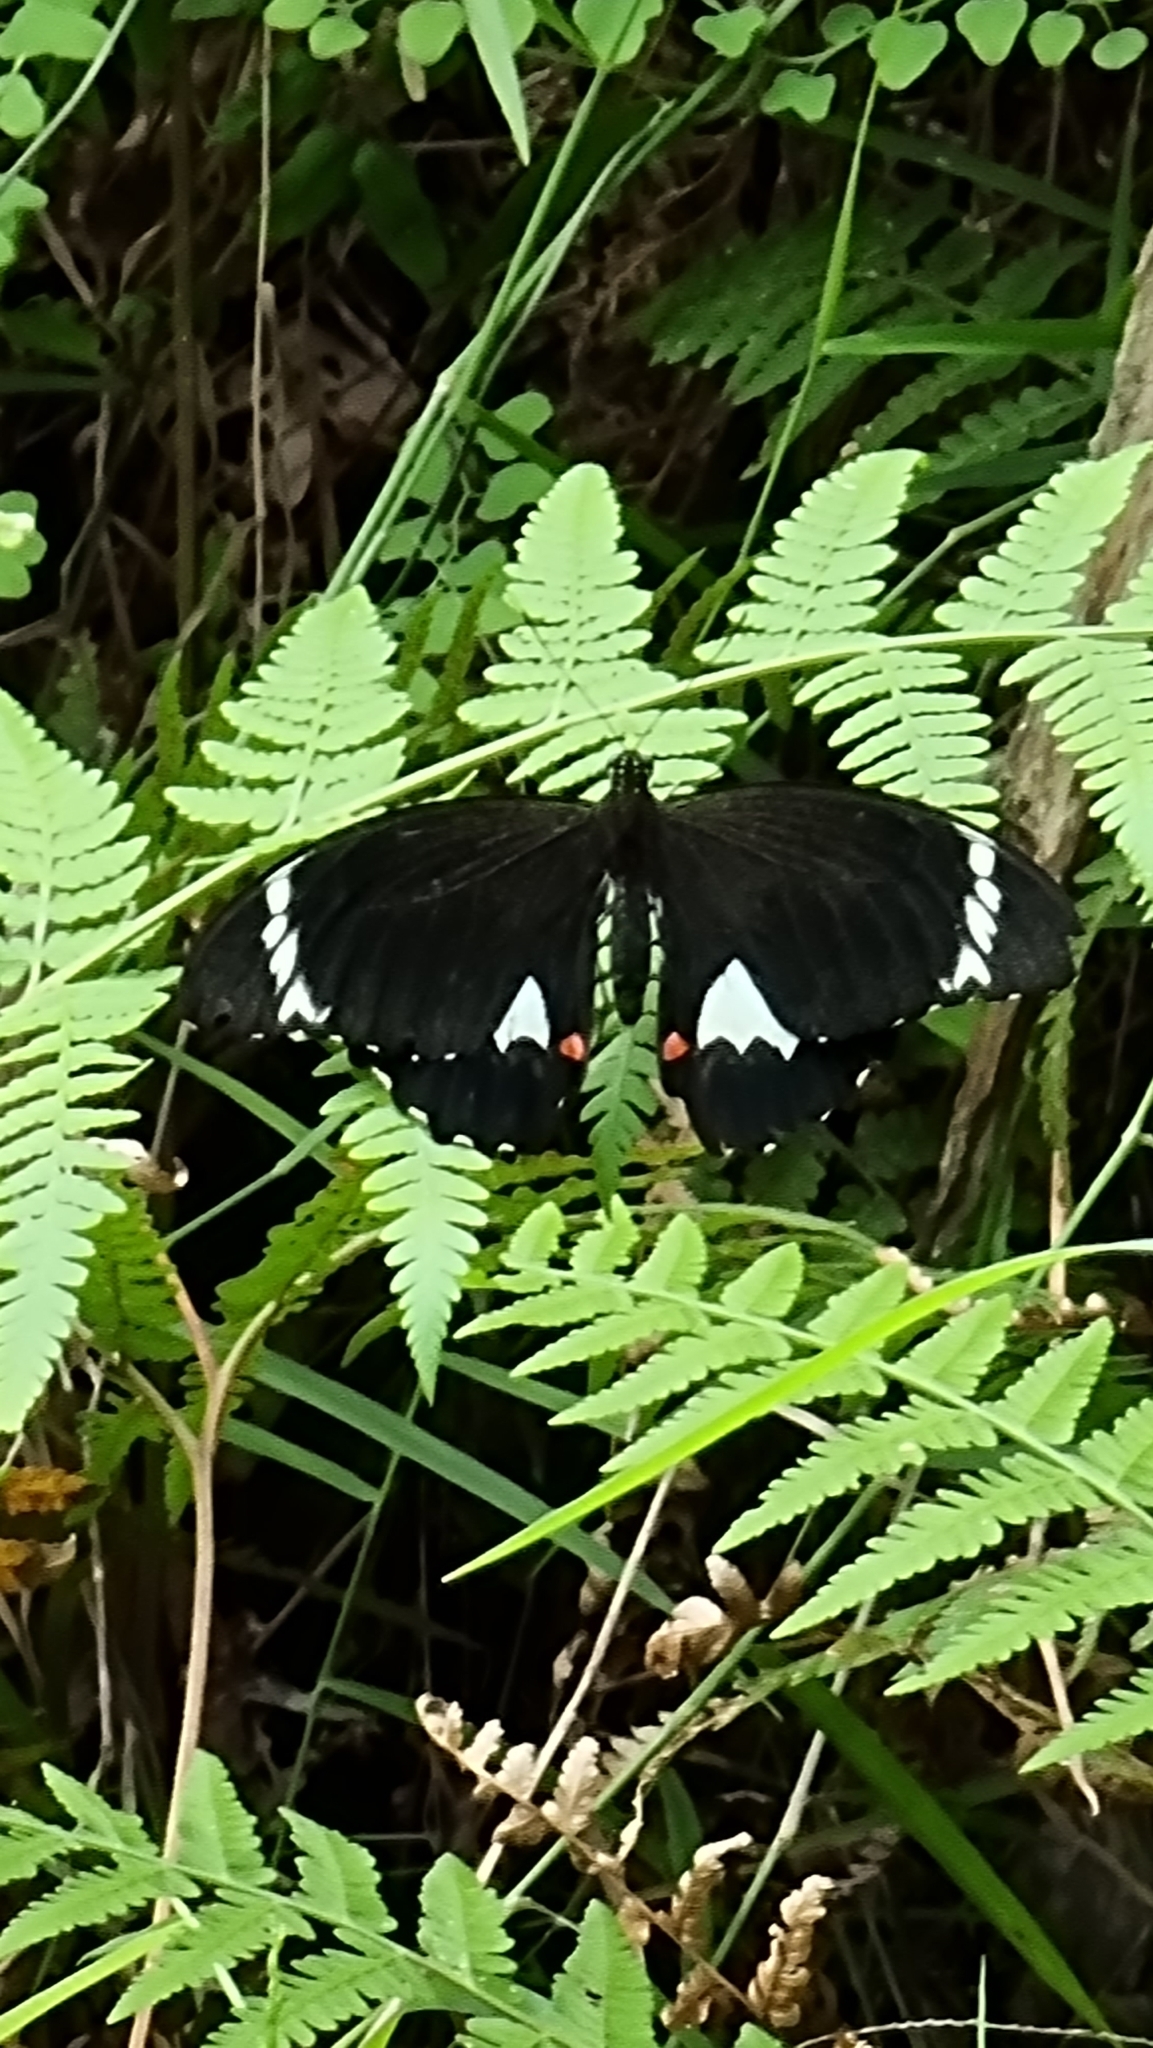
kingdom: Animalia
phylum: Arthropoda
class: Insecta
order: Lepidoptera
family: Papilionidae
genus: Papilio
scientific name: Papilio aegeus
